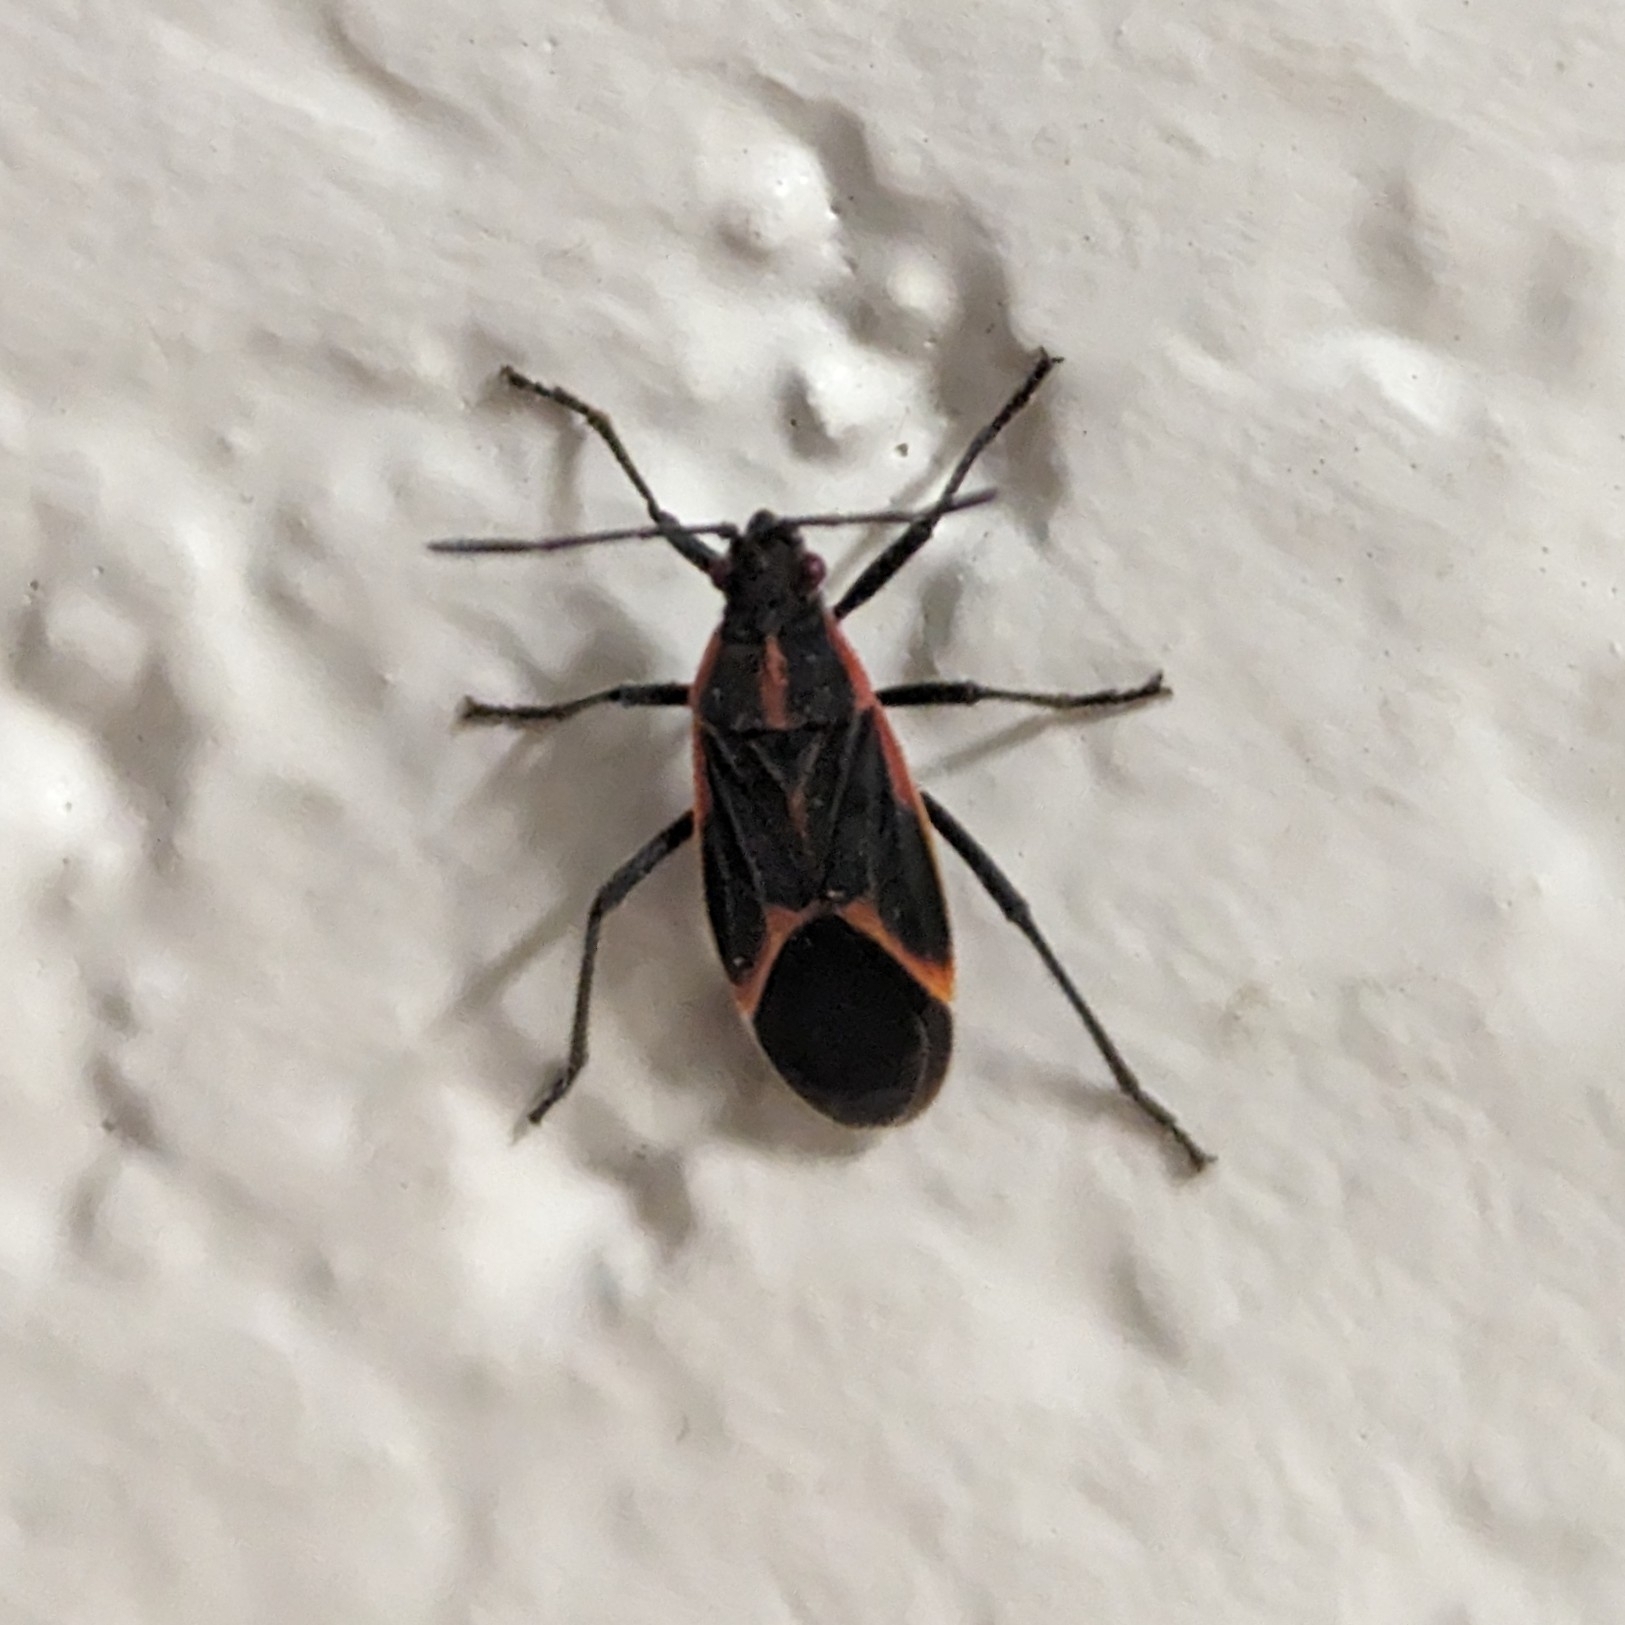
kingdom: Animalia
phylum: Arthropoda
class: Insecta
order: Hemiptera
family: Rhopalidae
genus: Boisea
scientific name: Boisea trivittata
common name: Boxelder bug
